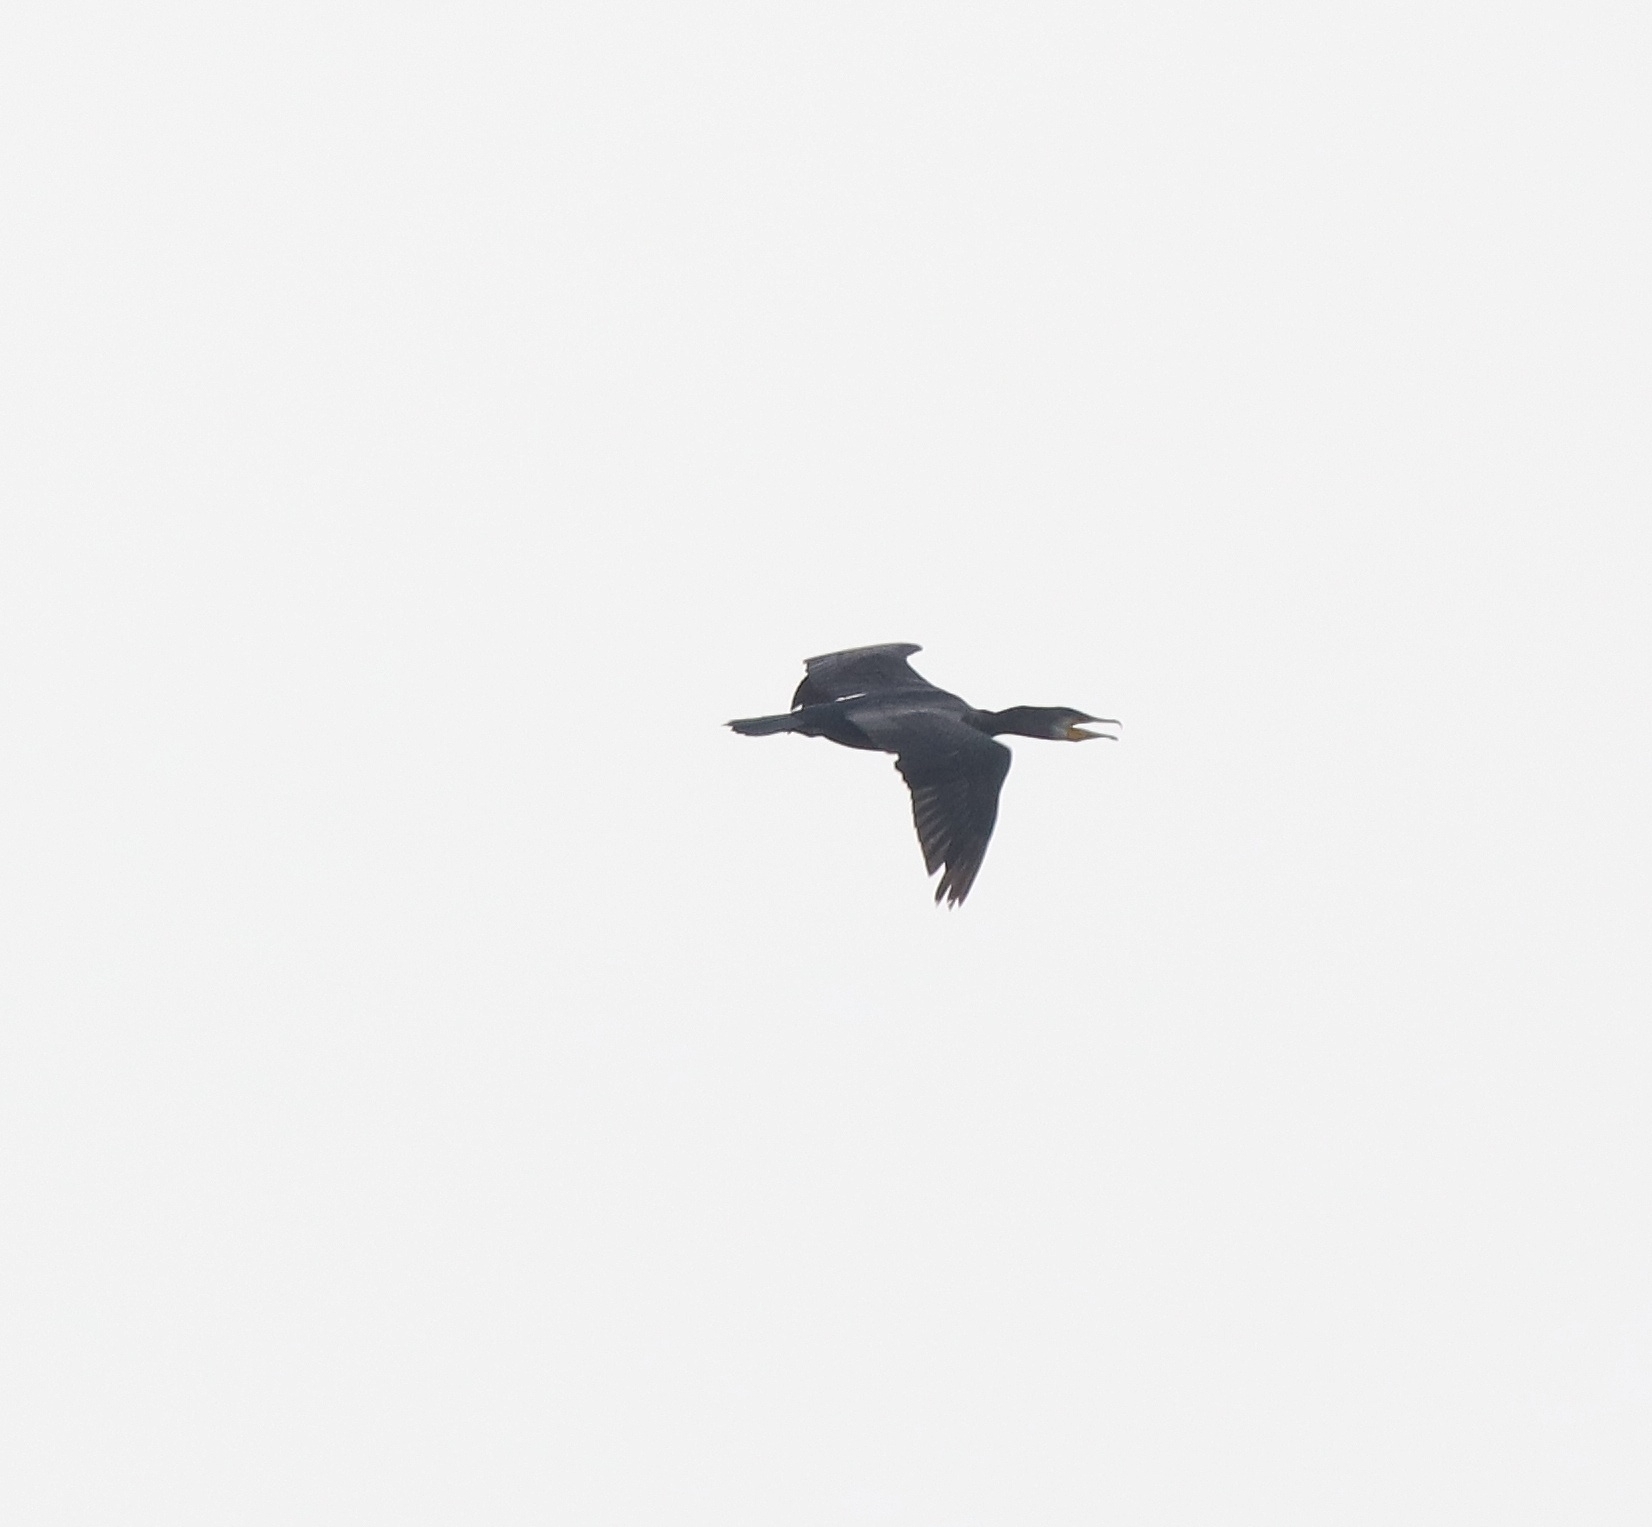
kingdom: Animalia
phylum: Chordata
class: Aves
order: Suliformes
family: Phalacrocoracidae
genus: Phalacrocorax
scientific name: Phalacrocorax carbo
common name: Great cormorant
